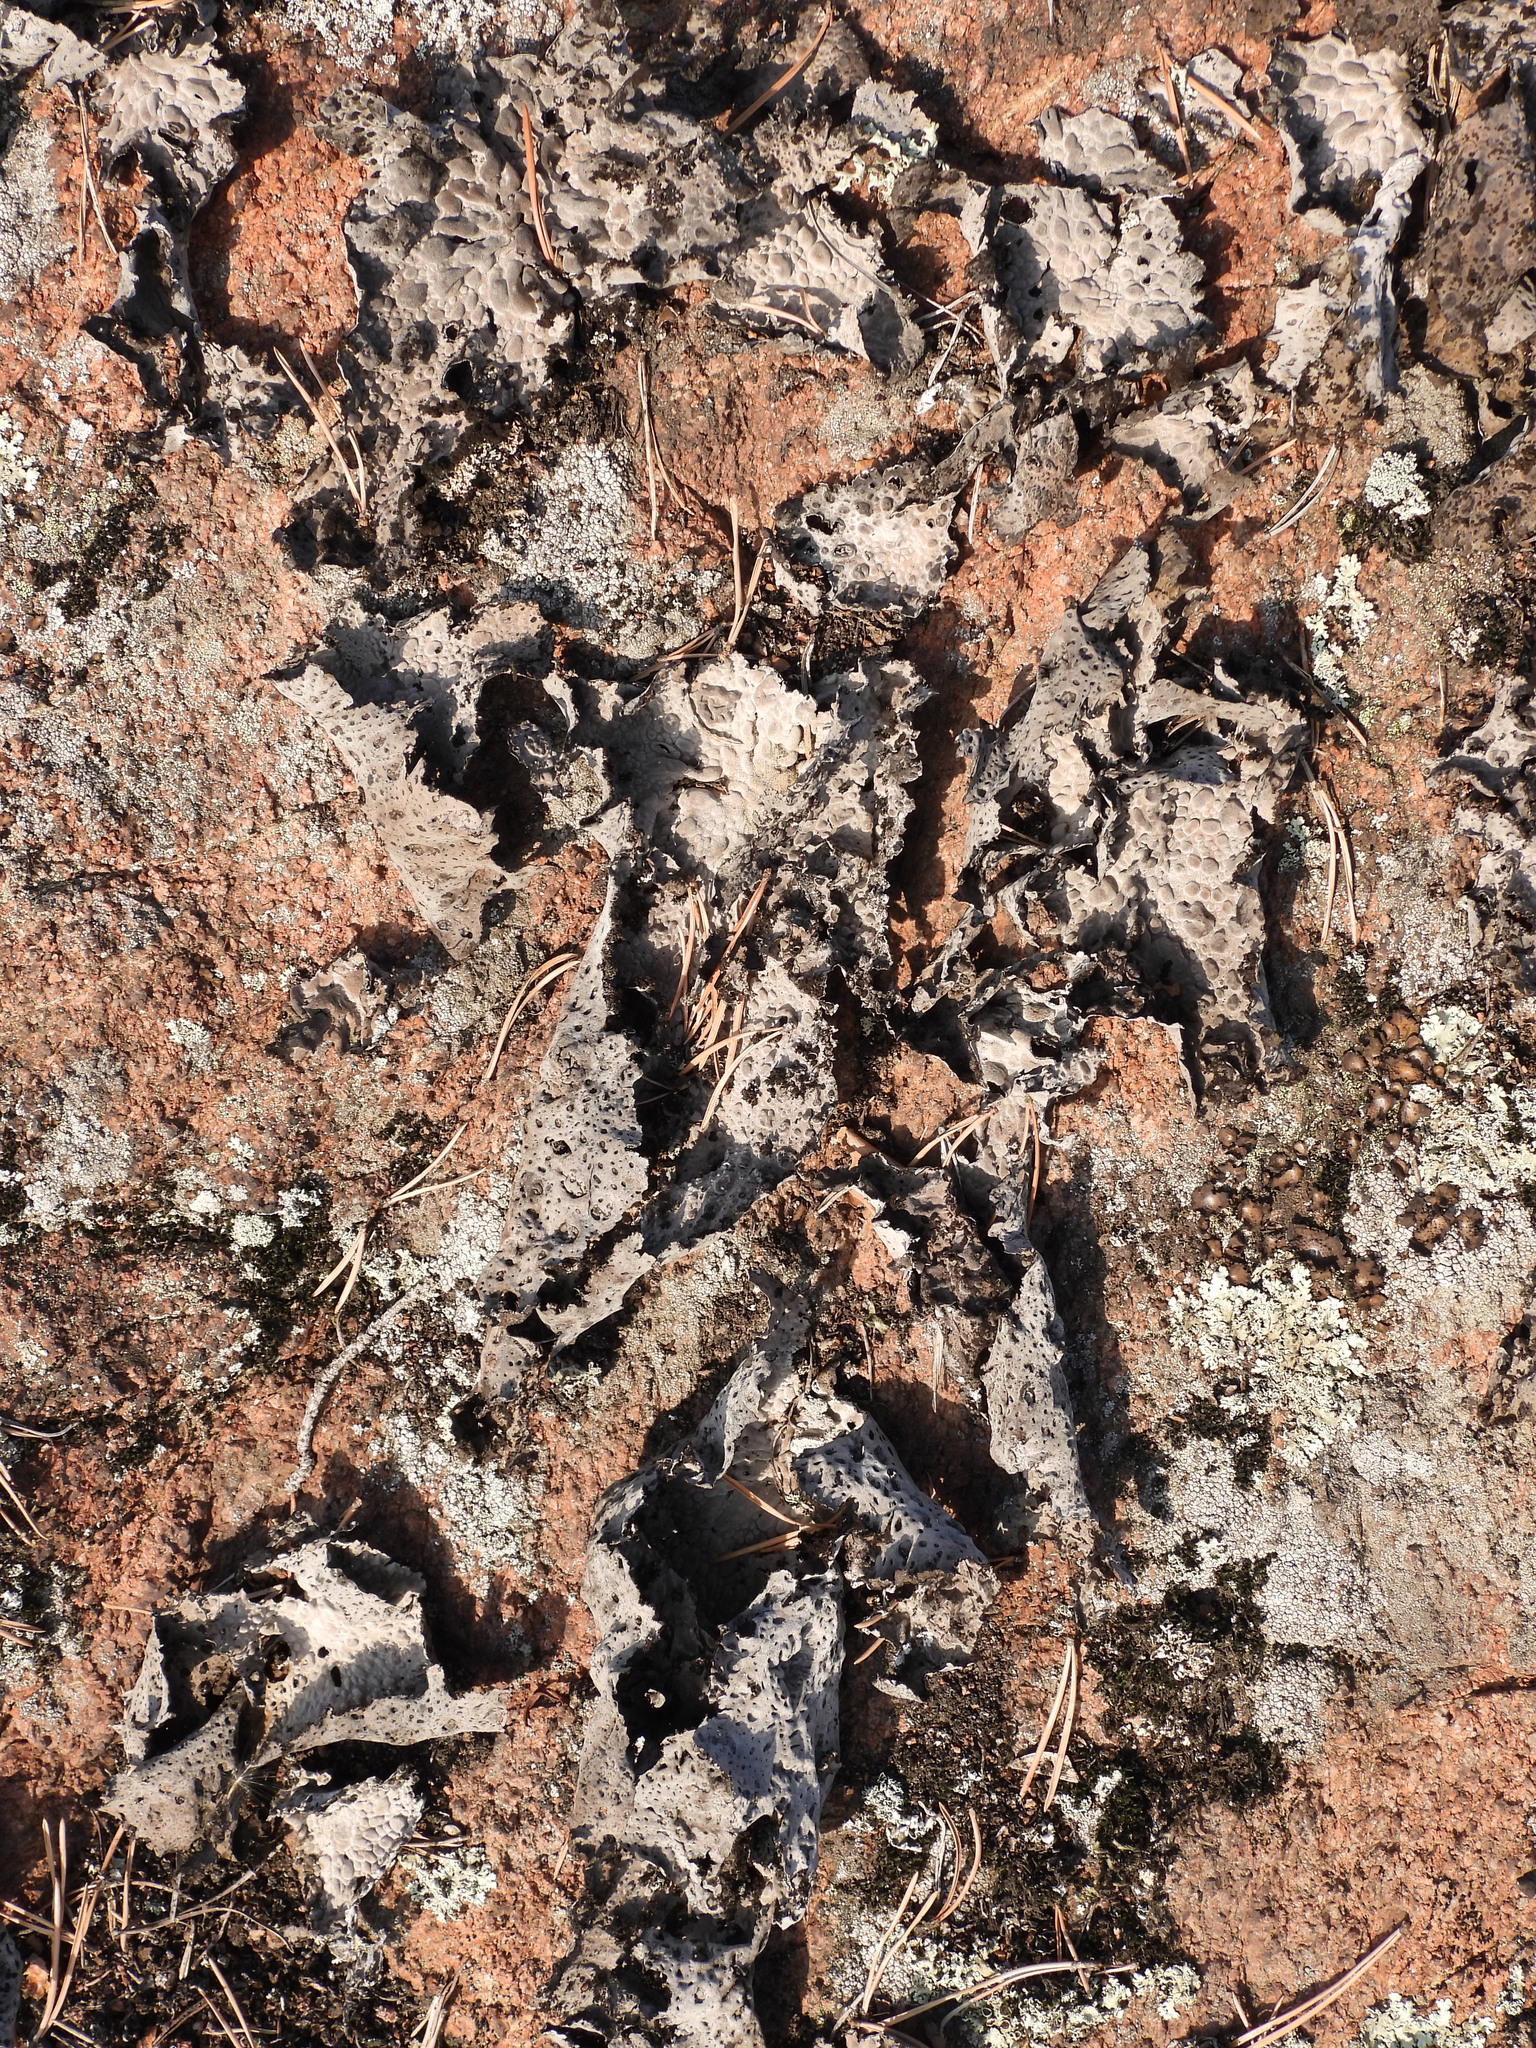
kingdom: Fungi
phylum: Ascomycota
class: Lecanoromycetes
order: Umbilicariales
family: Umbilicariaceae
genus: Lasallia
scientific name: Lasallia pustulata
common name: Blistered toadskin lichen
